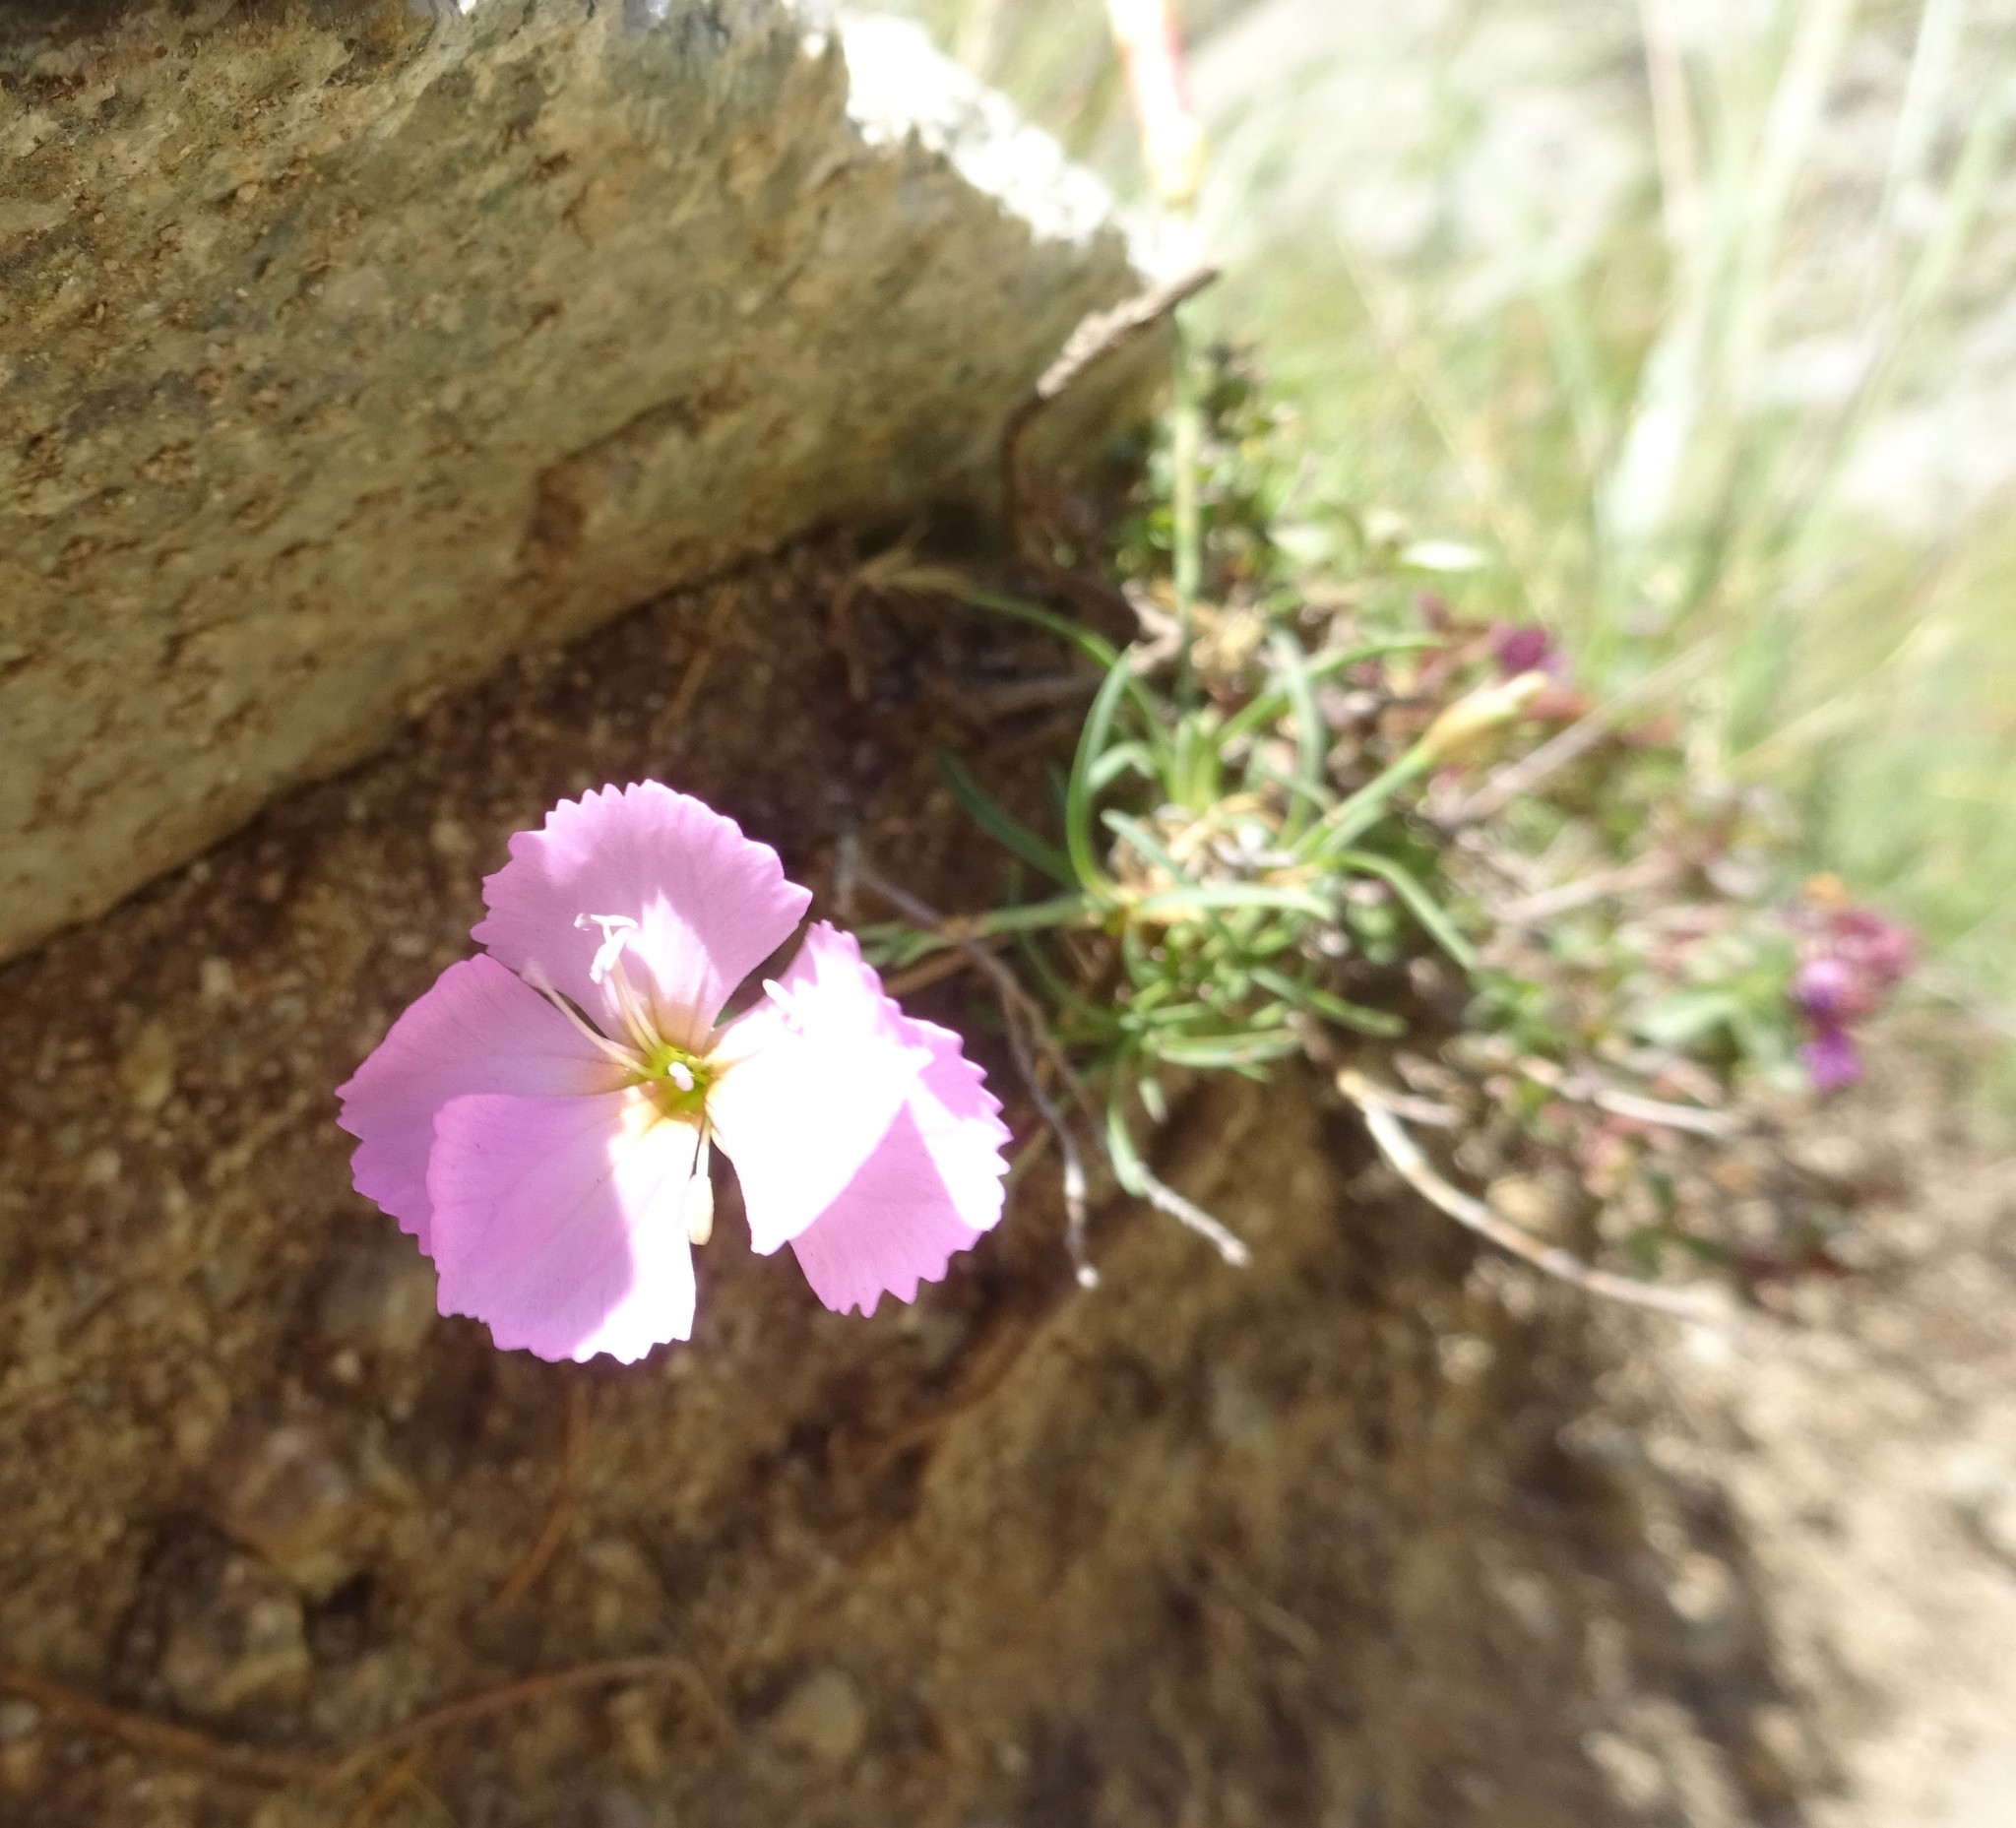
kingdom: Plantae
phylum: Tracheophyta
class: Magnoliopsida
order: Caryophyllales
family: Caryophyllaceae
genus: Dianthus
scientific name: Dianthus sylvestris
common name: Wood pink
